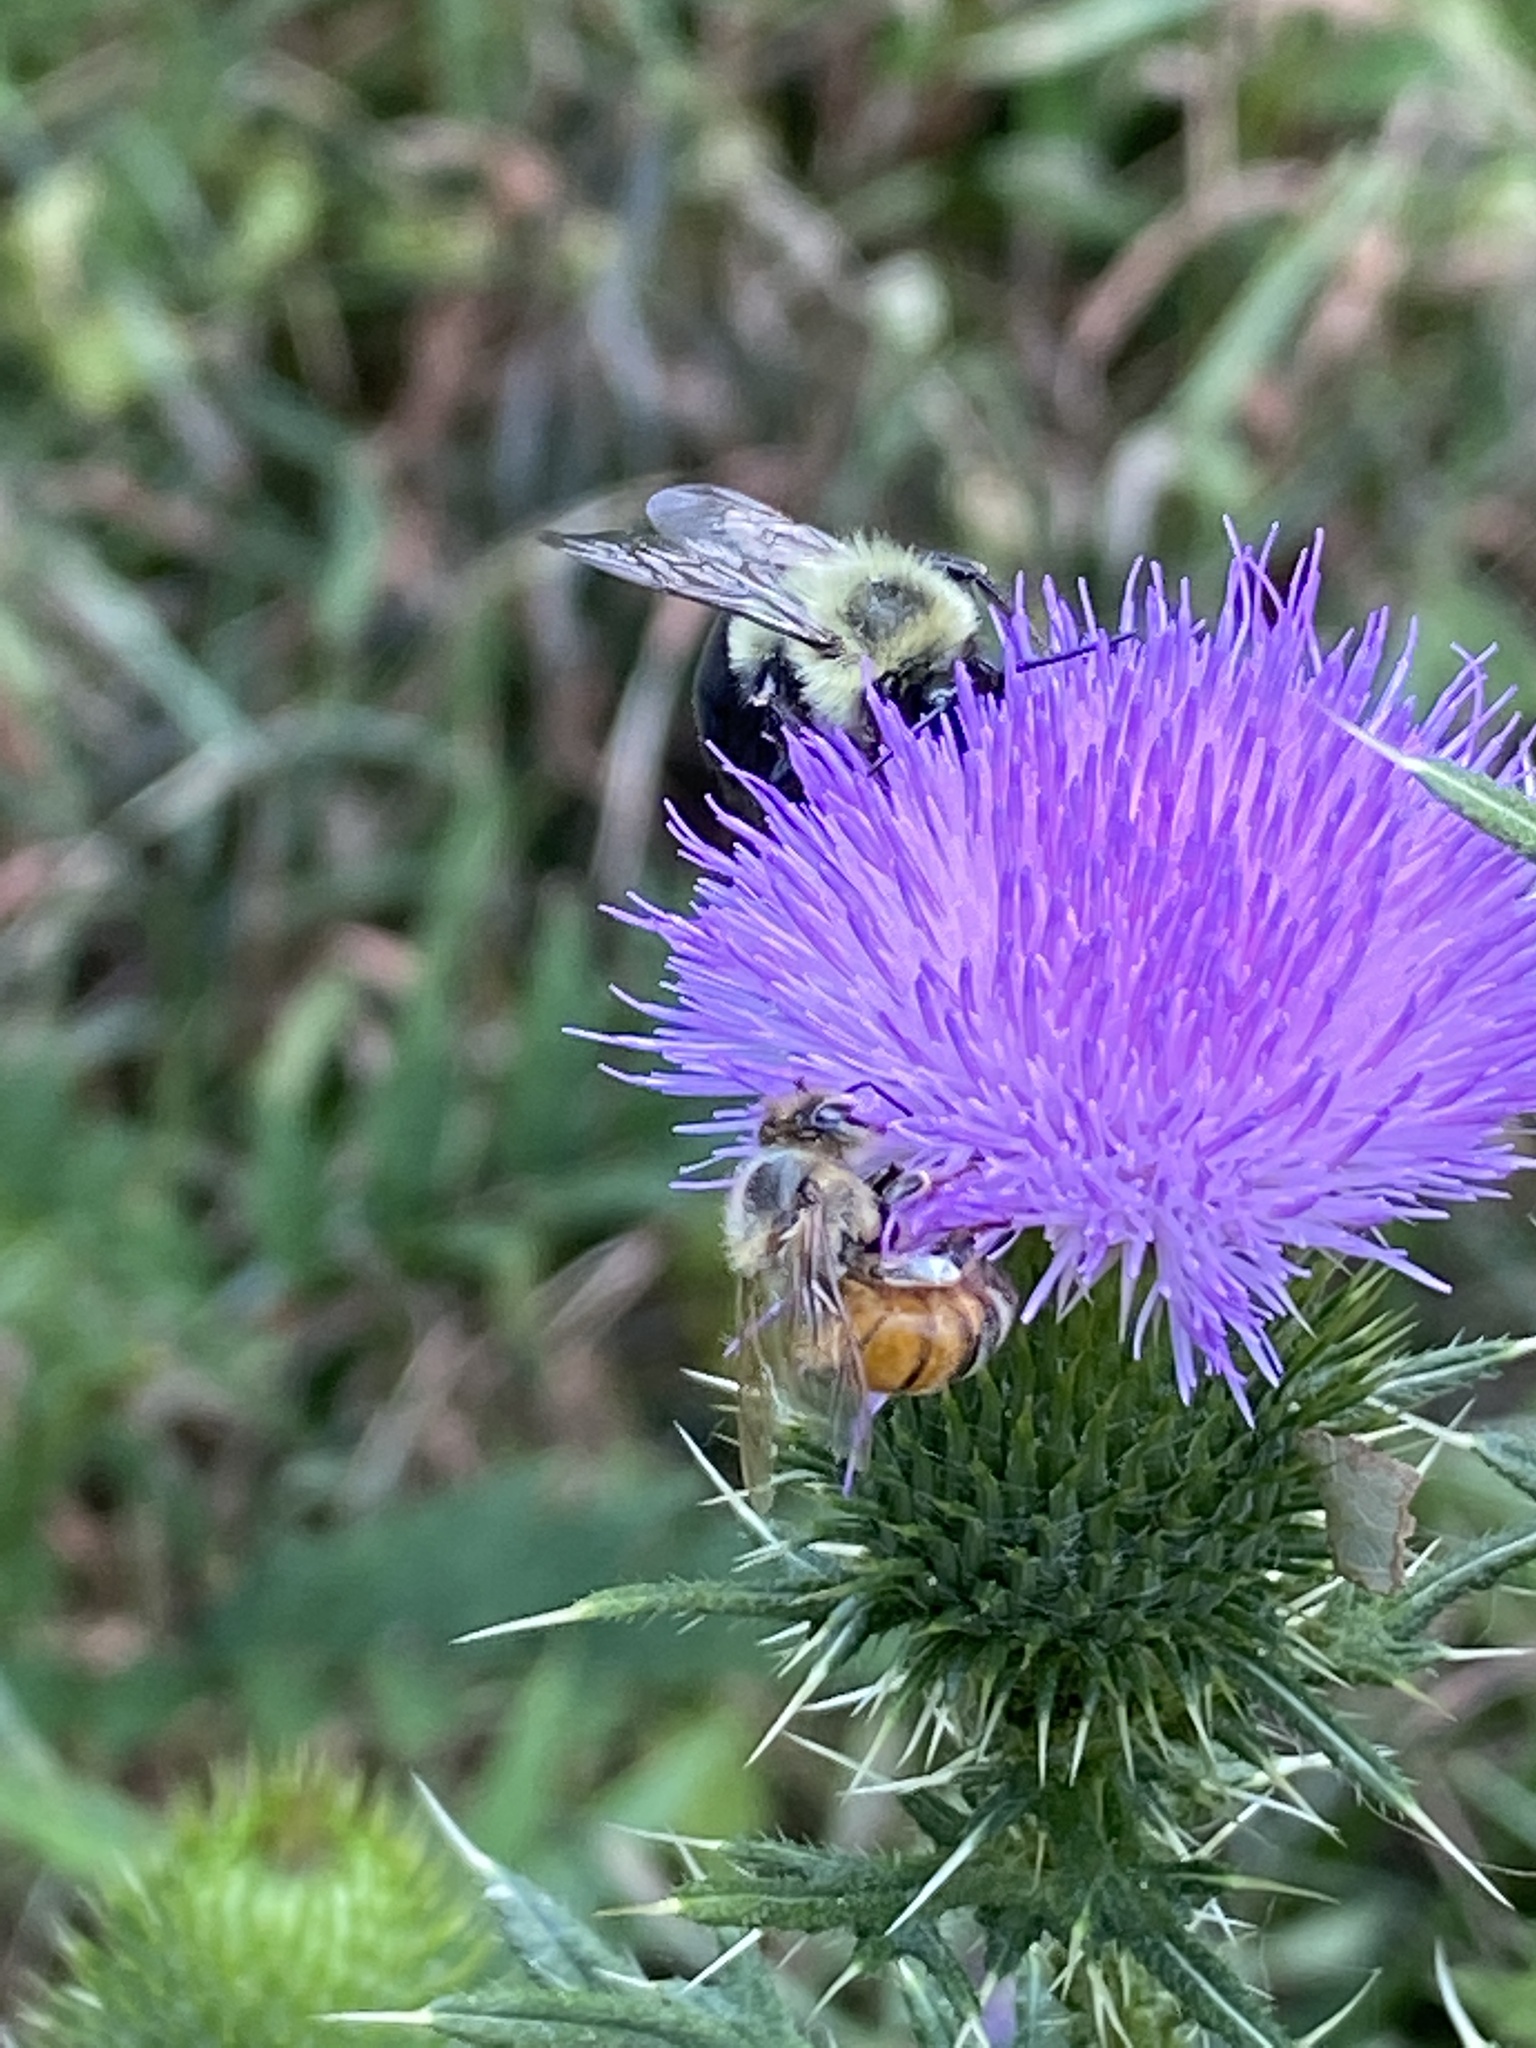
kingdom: Animalia
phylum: Arthropoda
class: Insecta
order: Hymenoptera
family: Apidae
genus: Apis
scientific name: Apis mellifera
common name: Honey bee
